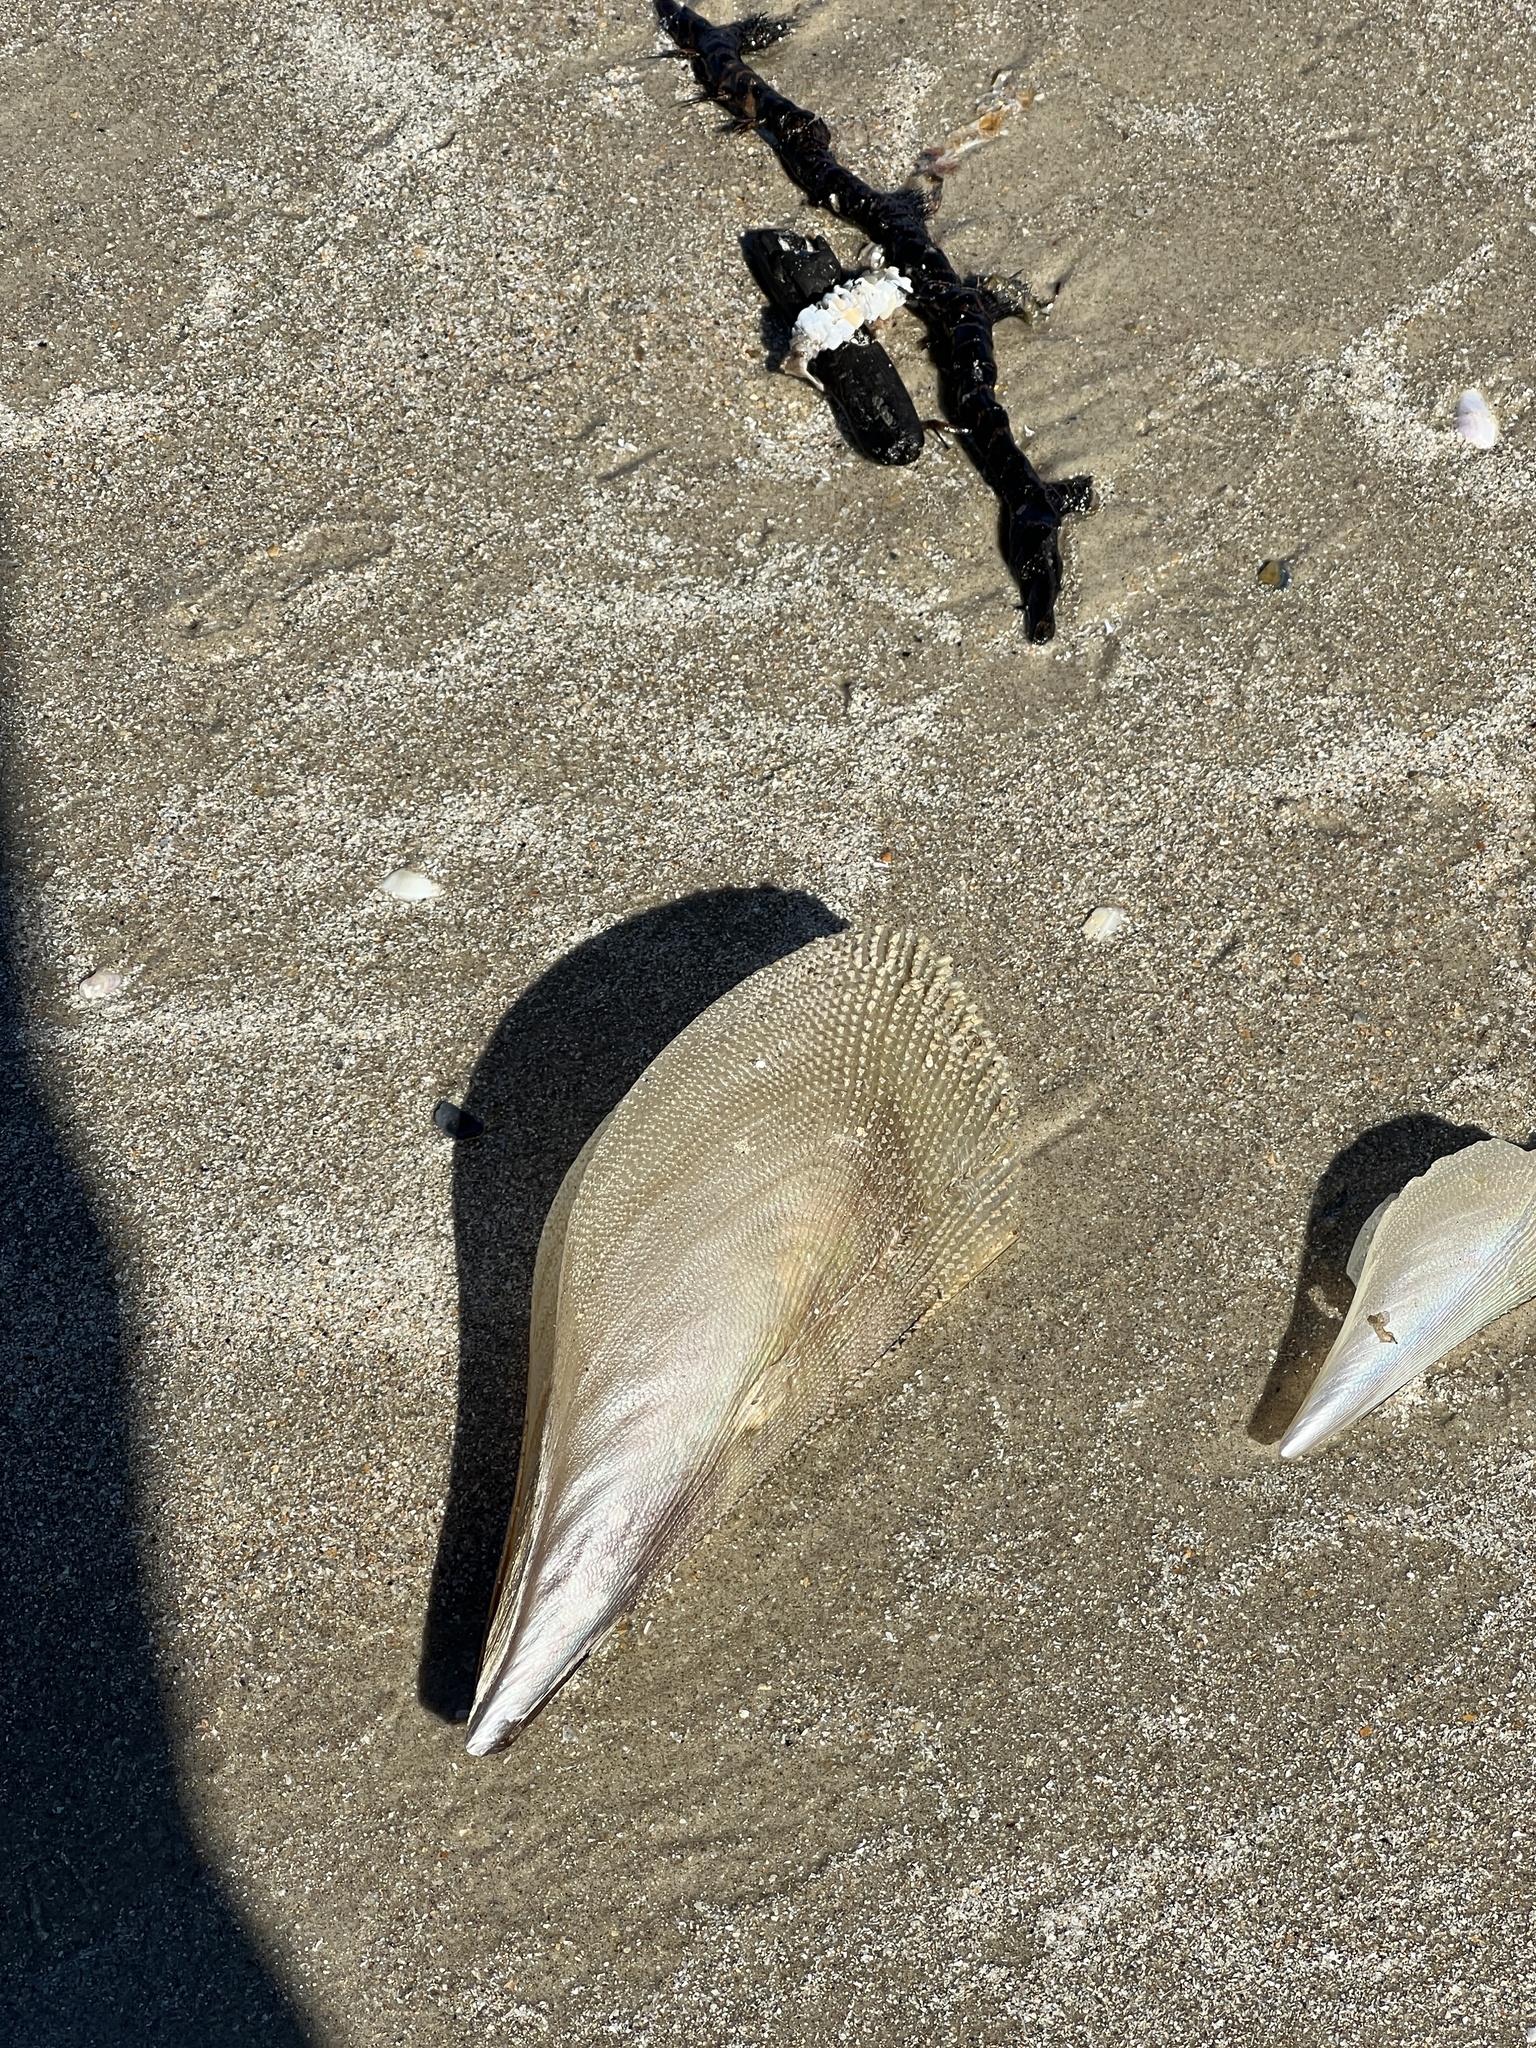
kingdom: Animalia
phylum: Mollusca
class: Bivalvia
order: Ostreida
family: Pinnidae
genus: Atrina
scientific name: Atrina serrata
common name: Saw-toothed penshell
